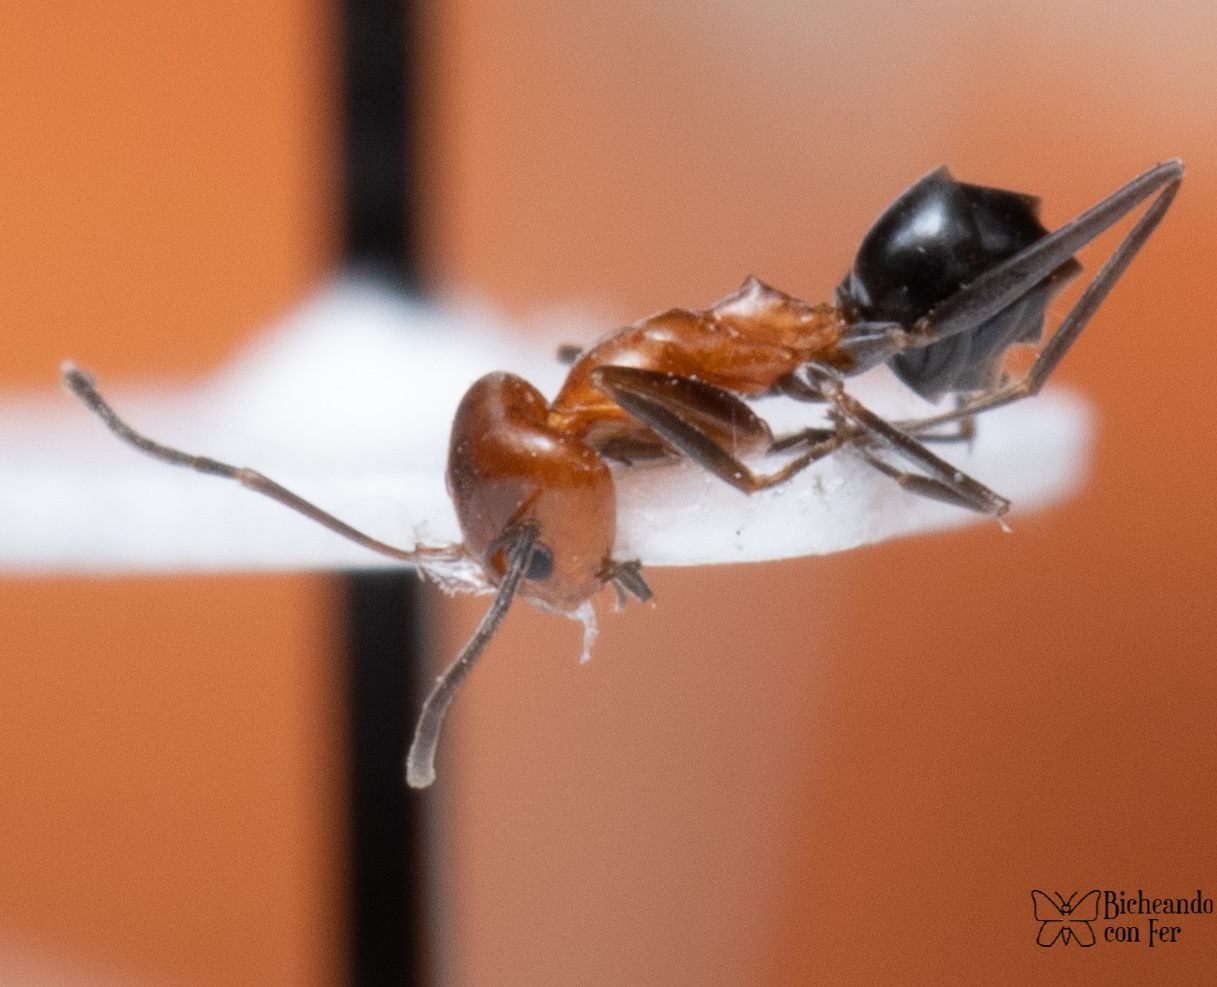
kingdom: Animalia
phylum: Arthropoda
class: Insecta
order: Hymenoptera
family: Formicidae
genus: Dorymyrmex
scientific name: Dorymyrmex bicolor
